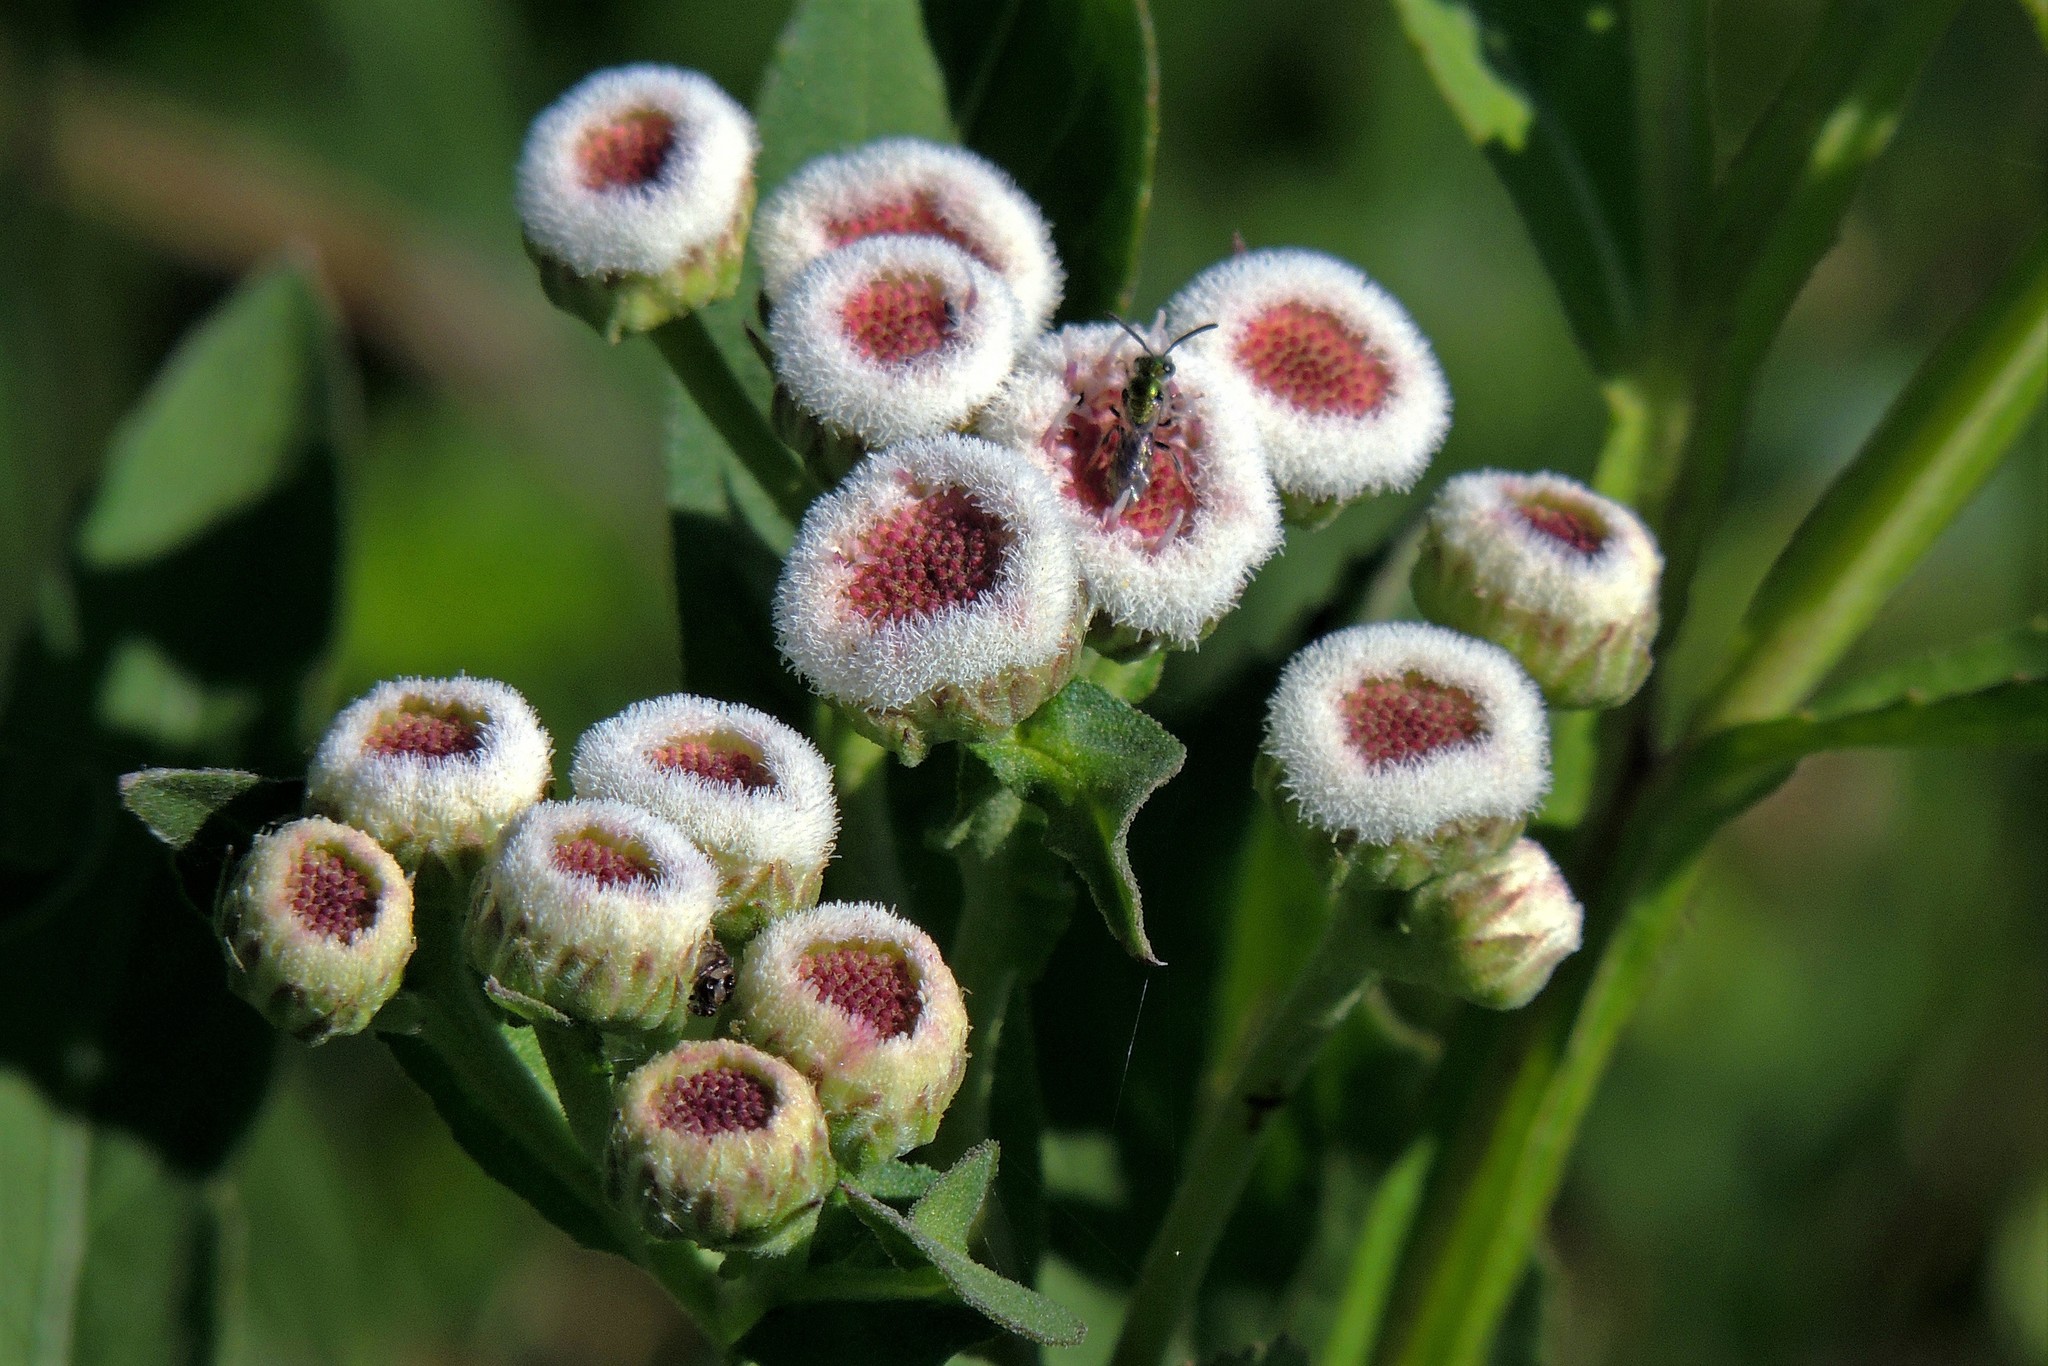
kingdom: Plantae
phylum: Tracheophyta
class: Magnoliopsida
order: Asterales
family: Asteraceae
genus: Pluchea
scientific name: Pluchea sagittalis
